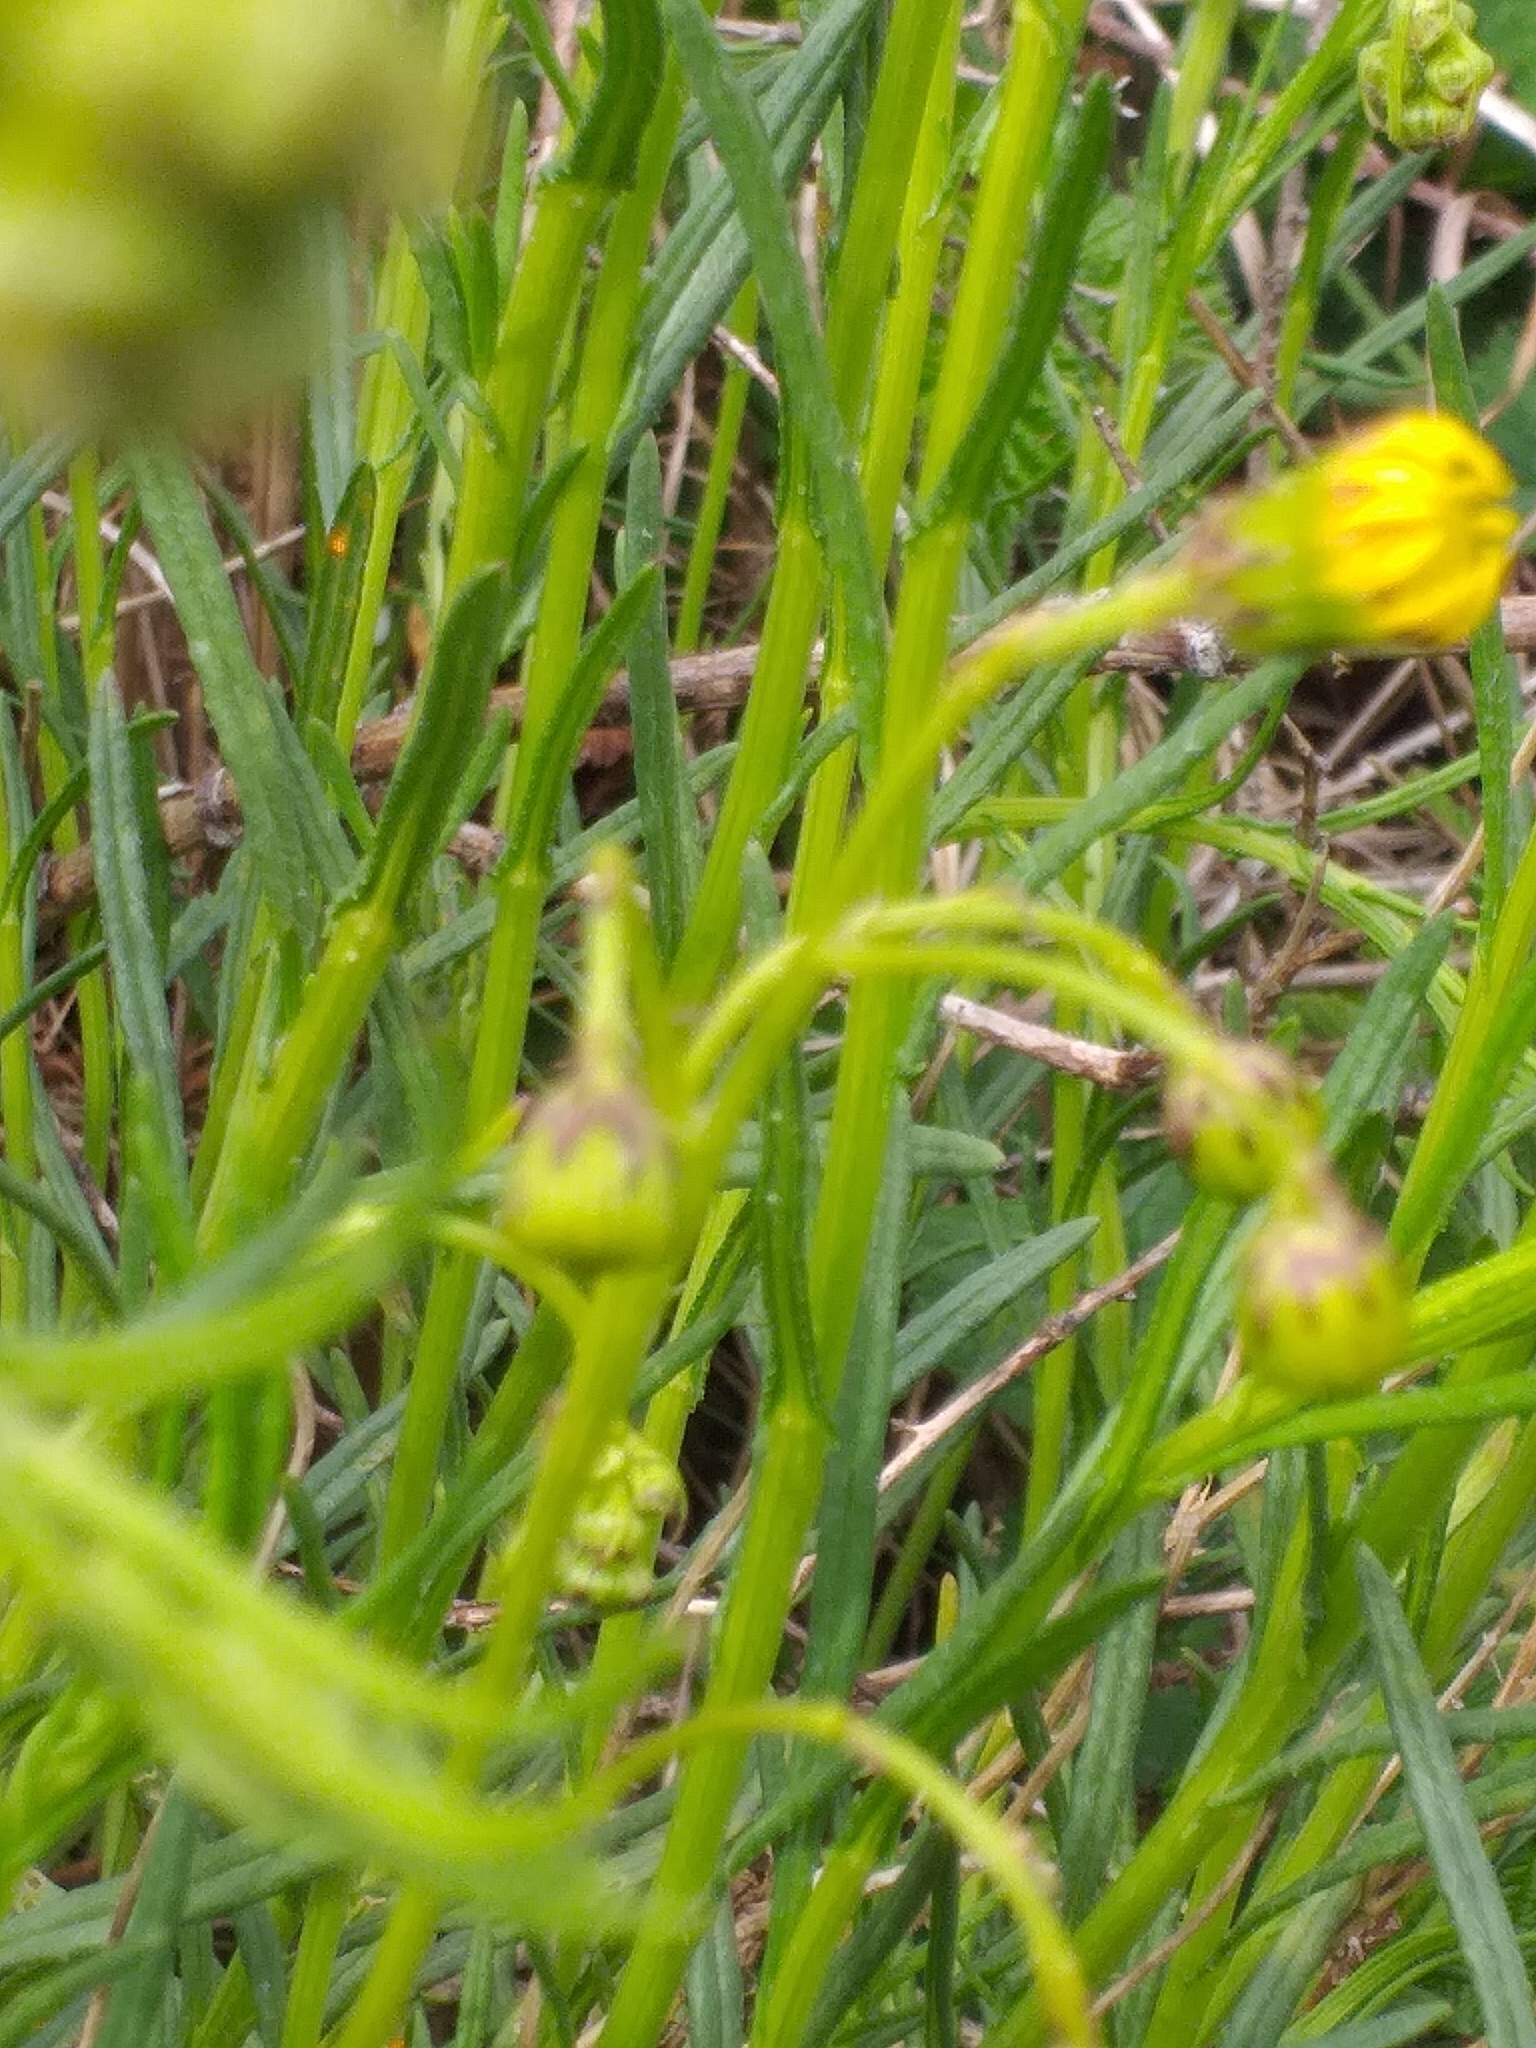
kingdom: Plantae
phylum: Tracheophyta
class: Magnoliopsida
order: Asterales
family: Asteraceae
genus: Senecio
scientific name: Senecio inaequidens
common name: Narrow-leaved ragwort
